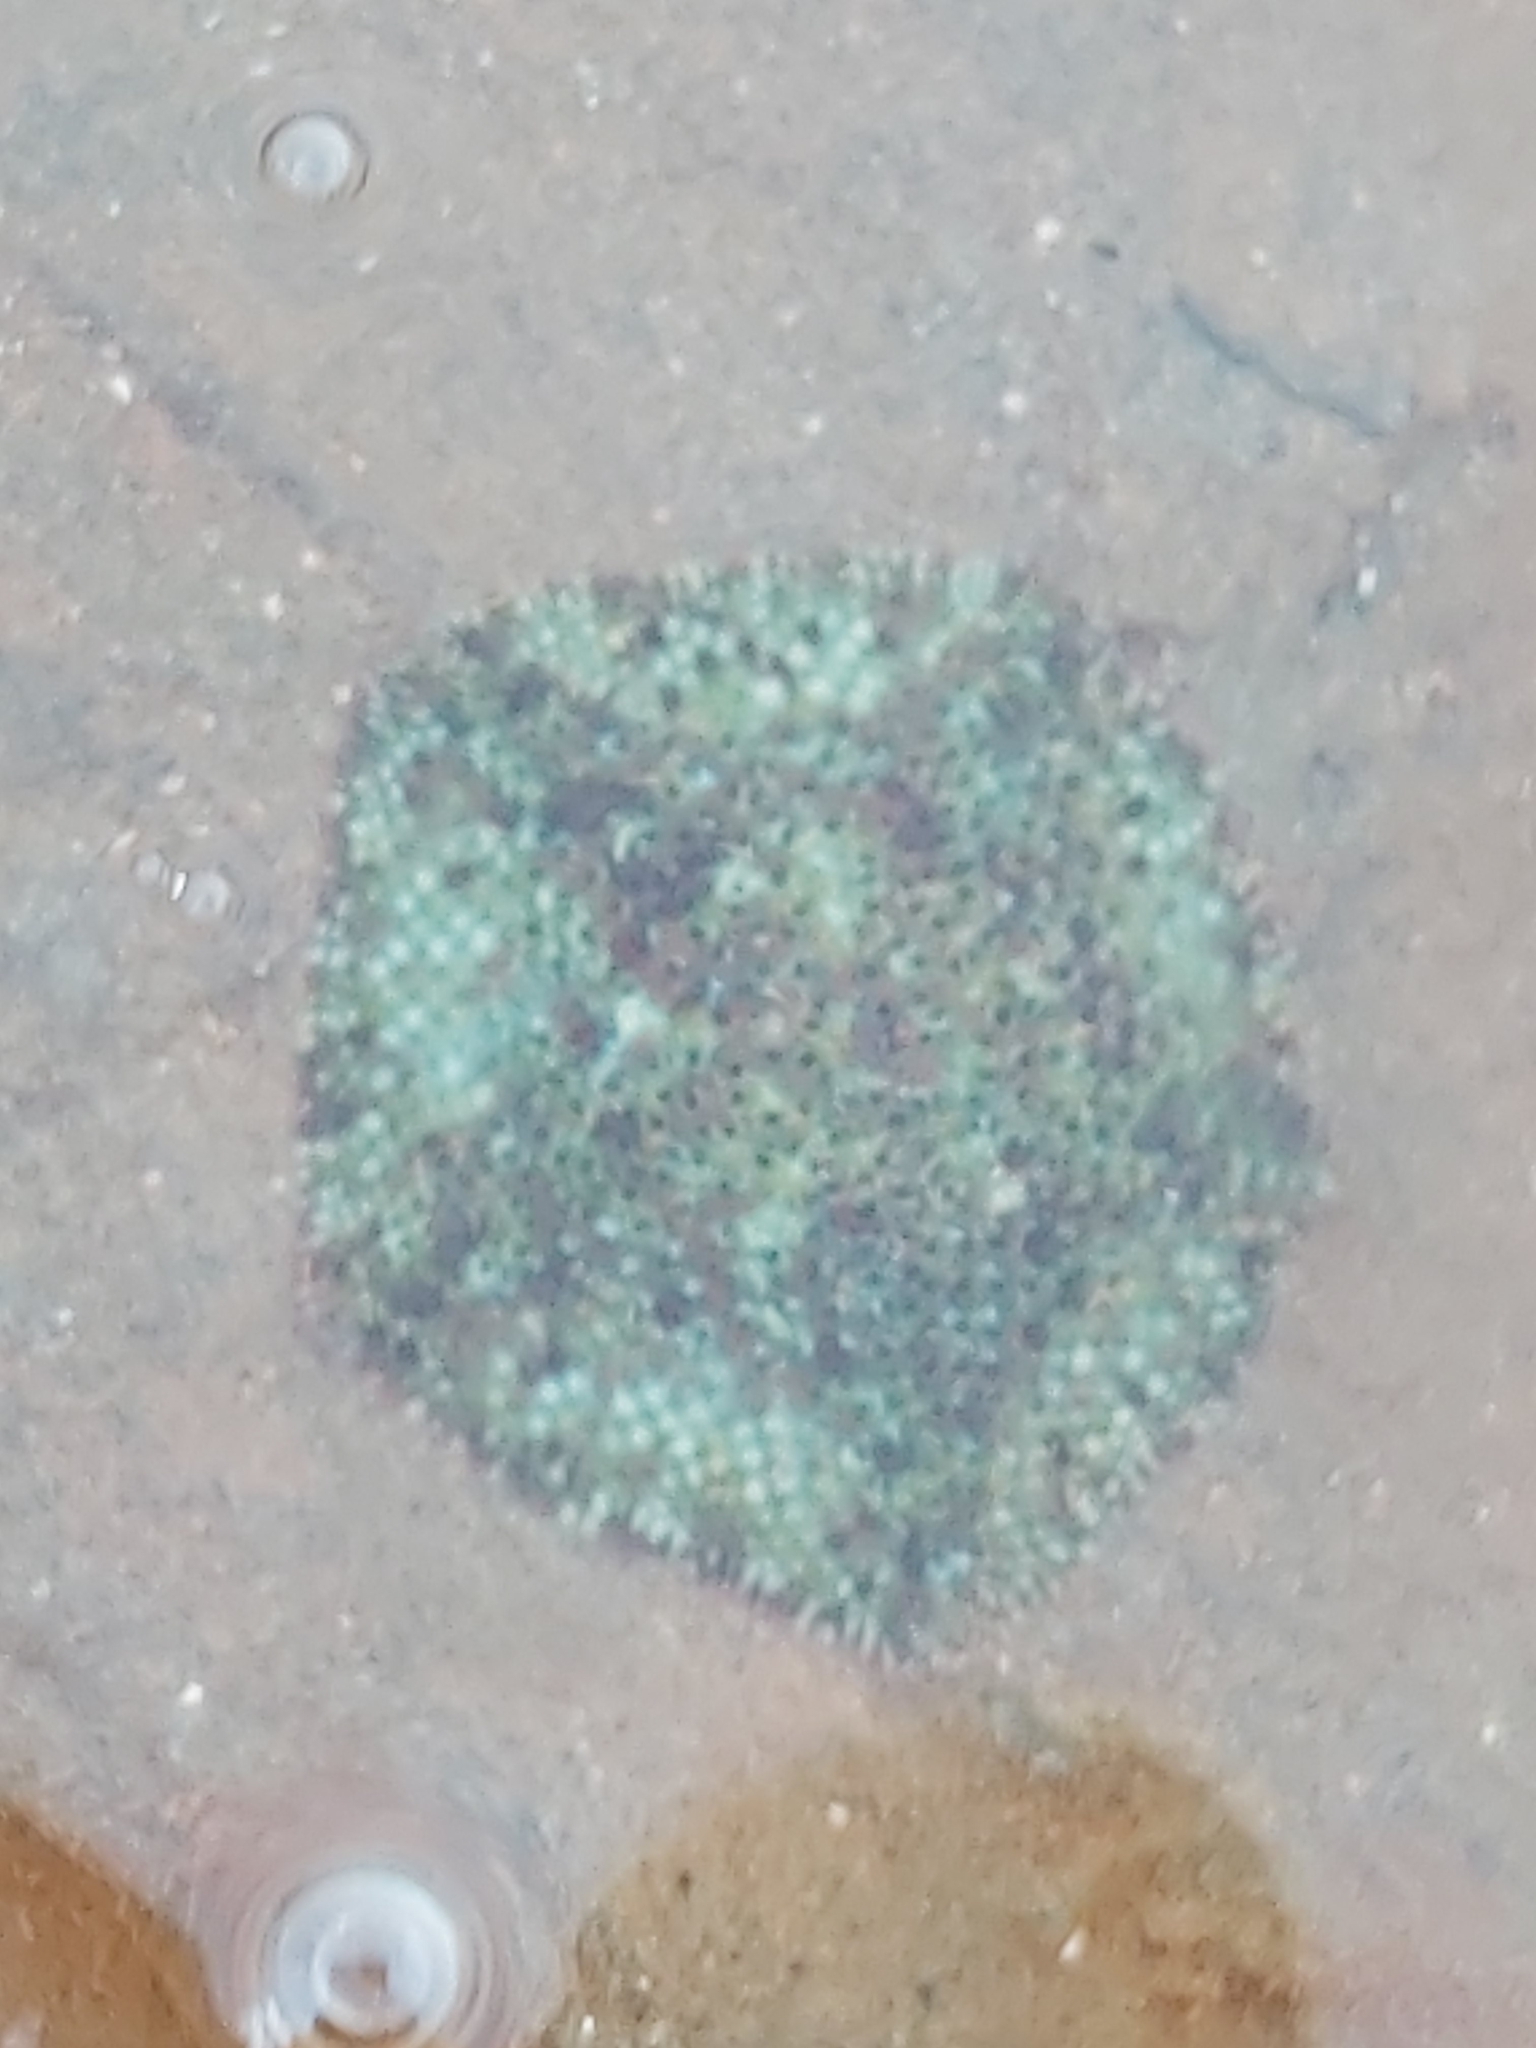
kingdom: Animalia
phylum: Echinodermata
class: Asteroidea
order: Valvatida
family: Asterinidae
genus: Parvulastra
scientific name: Parvulastra exigua
